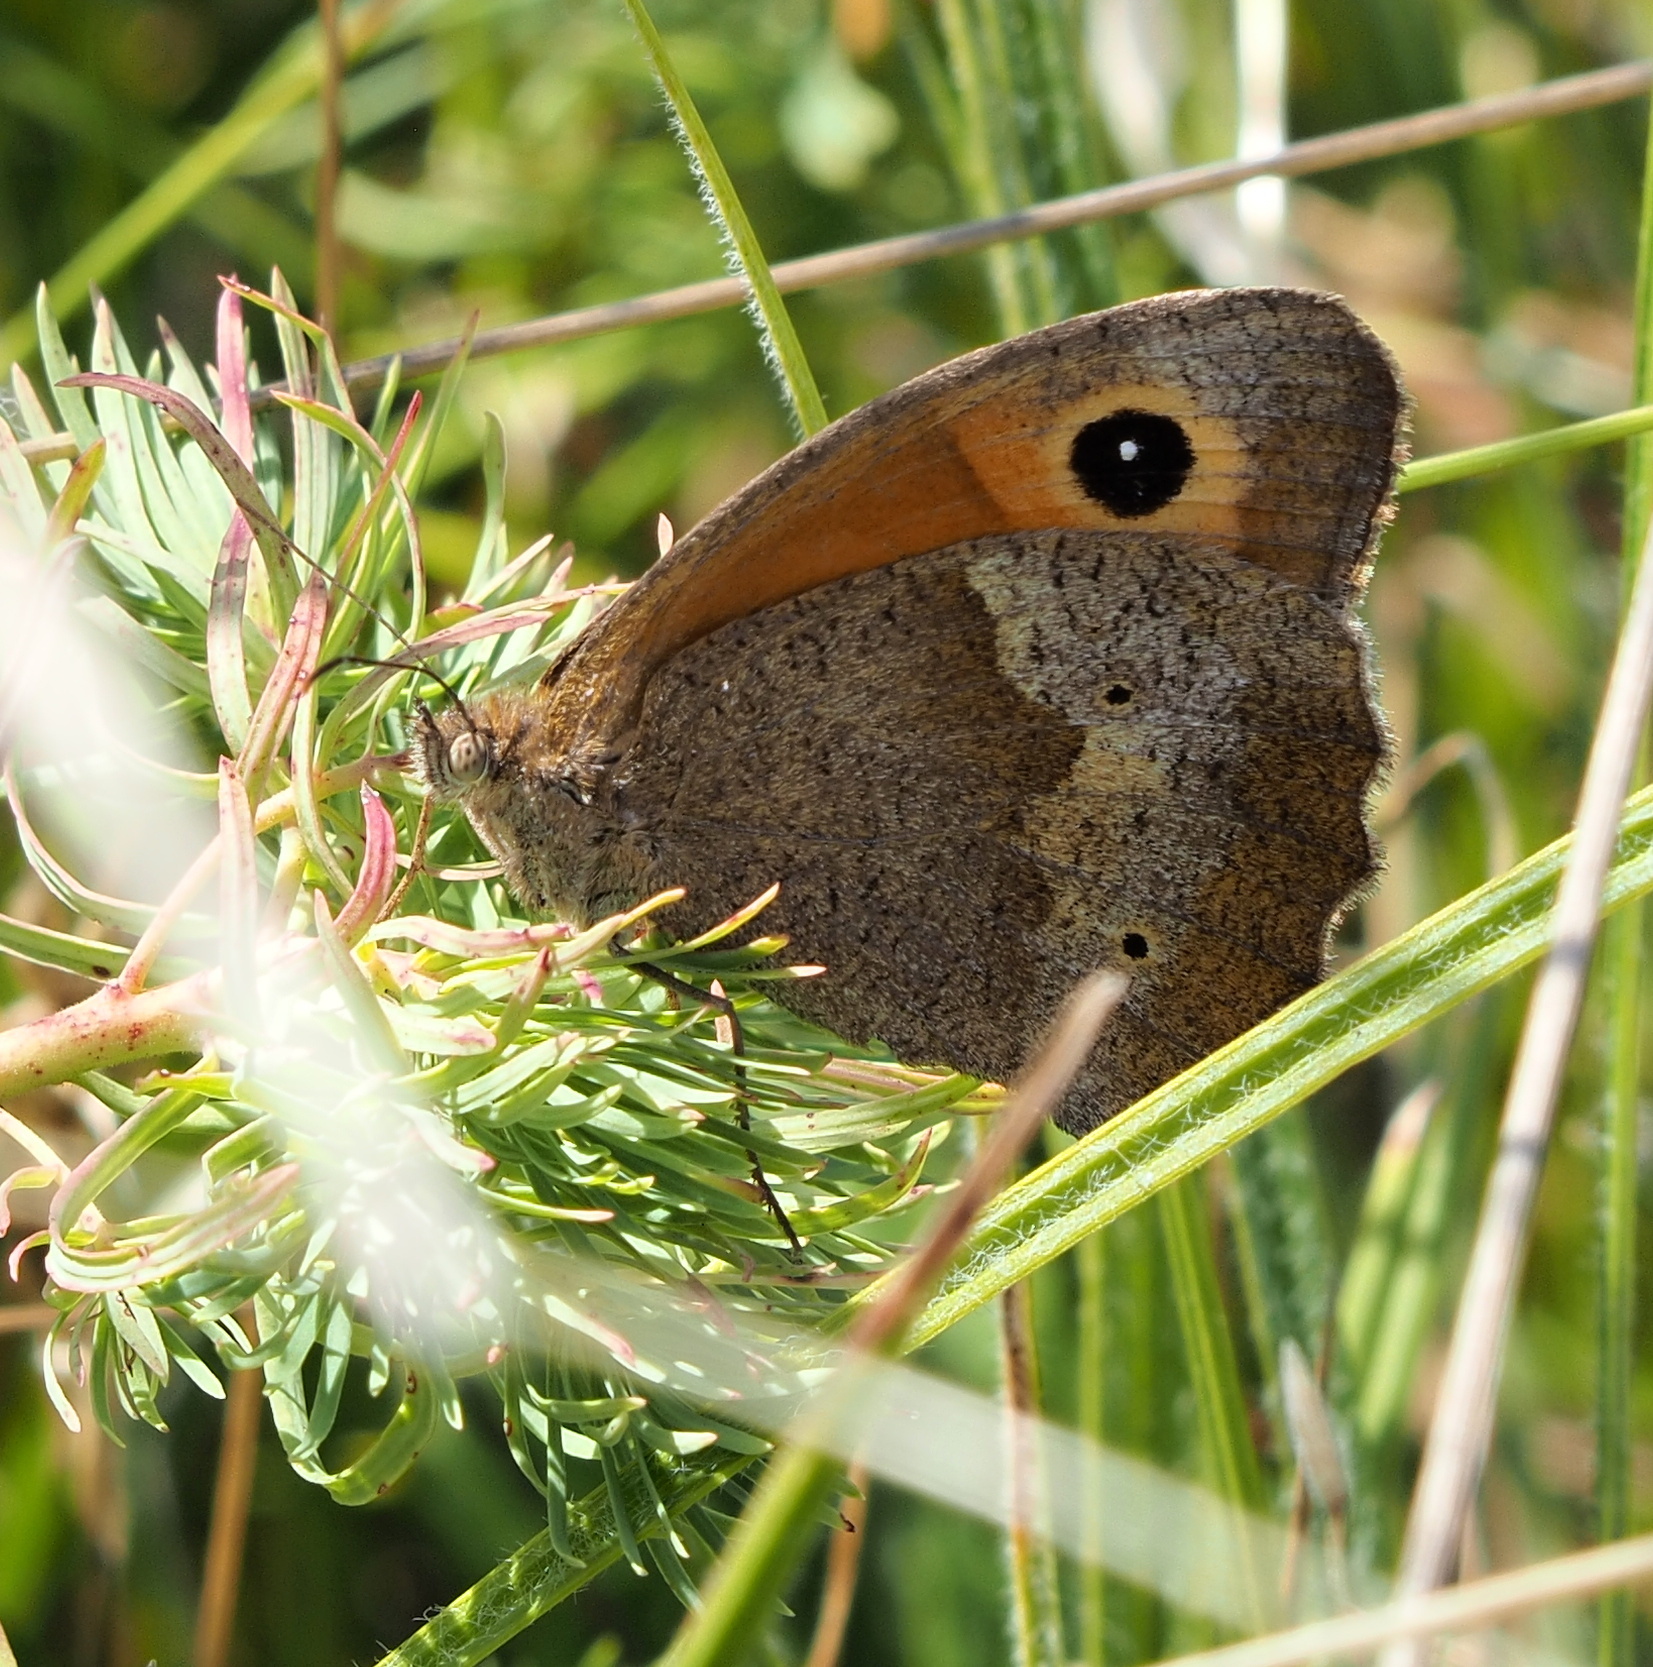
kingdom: Animalia
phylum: Arthropoda
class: Insecta
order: Lepidoptera
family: Nymphalidae
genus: Maniola
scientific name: Maniola jurtina
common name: Meadow brown
